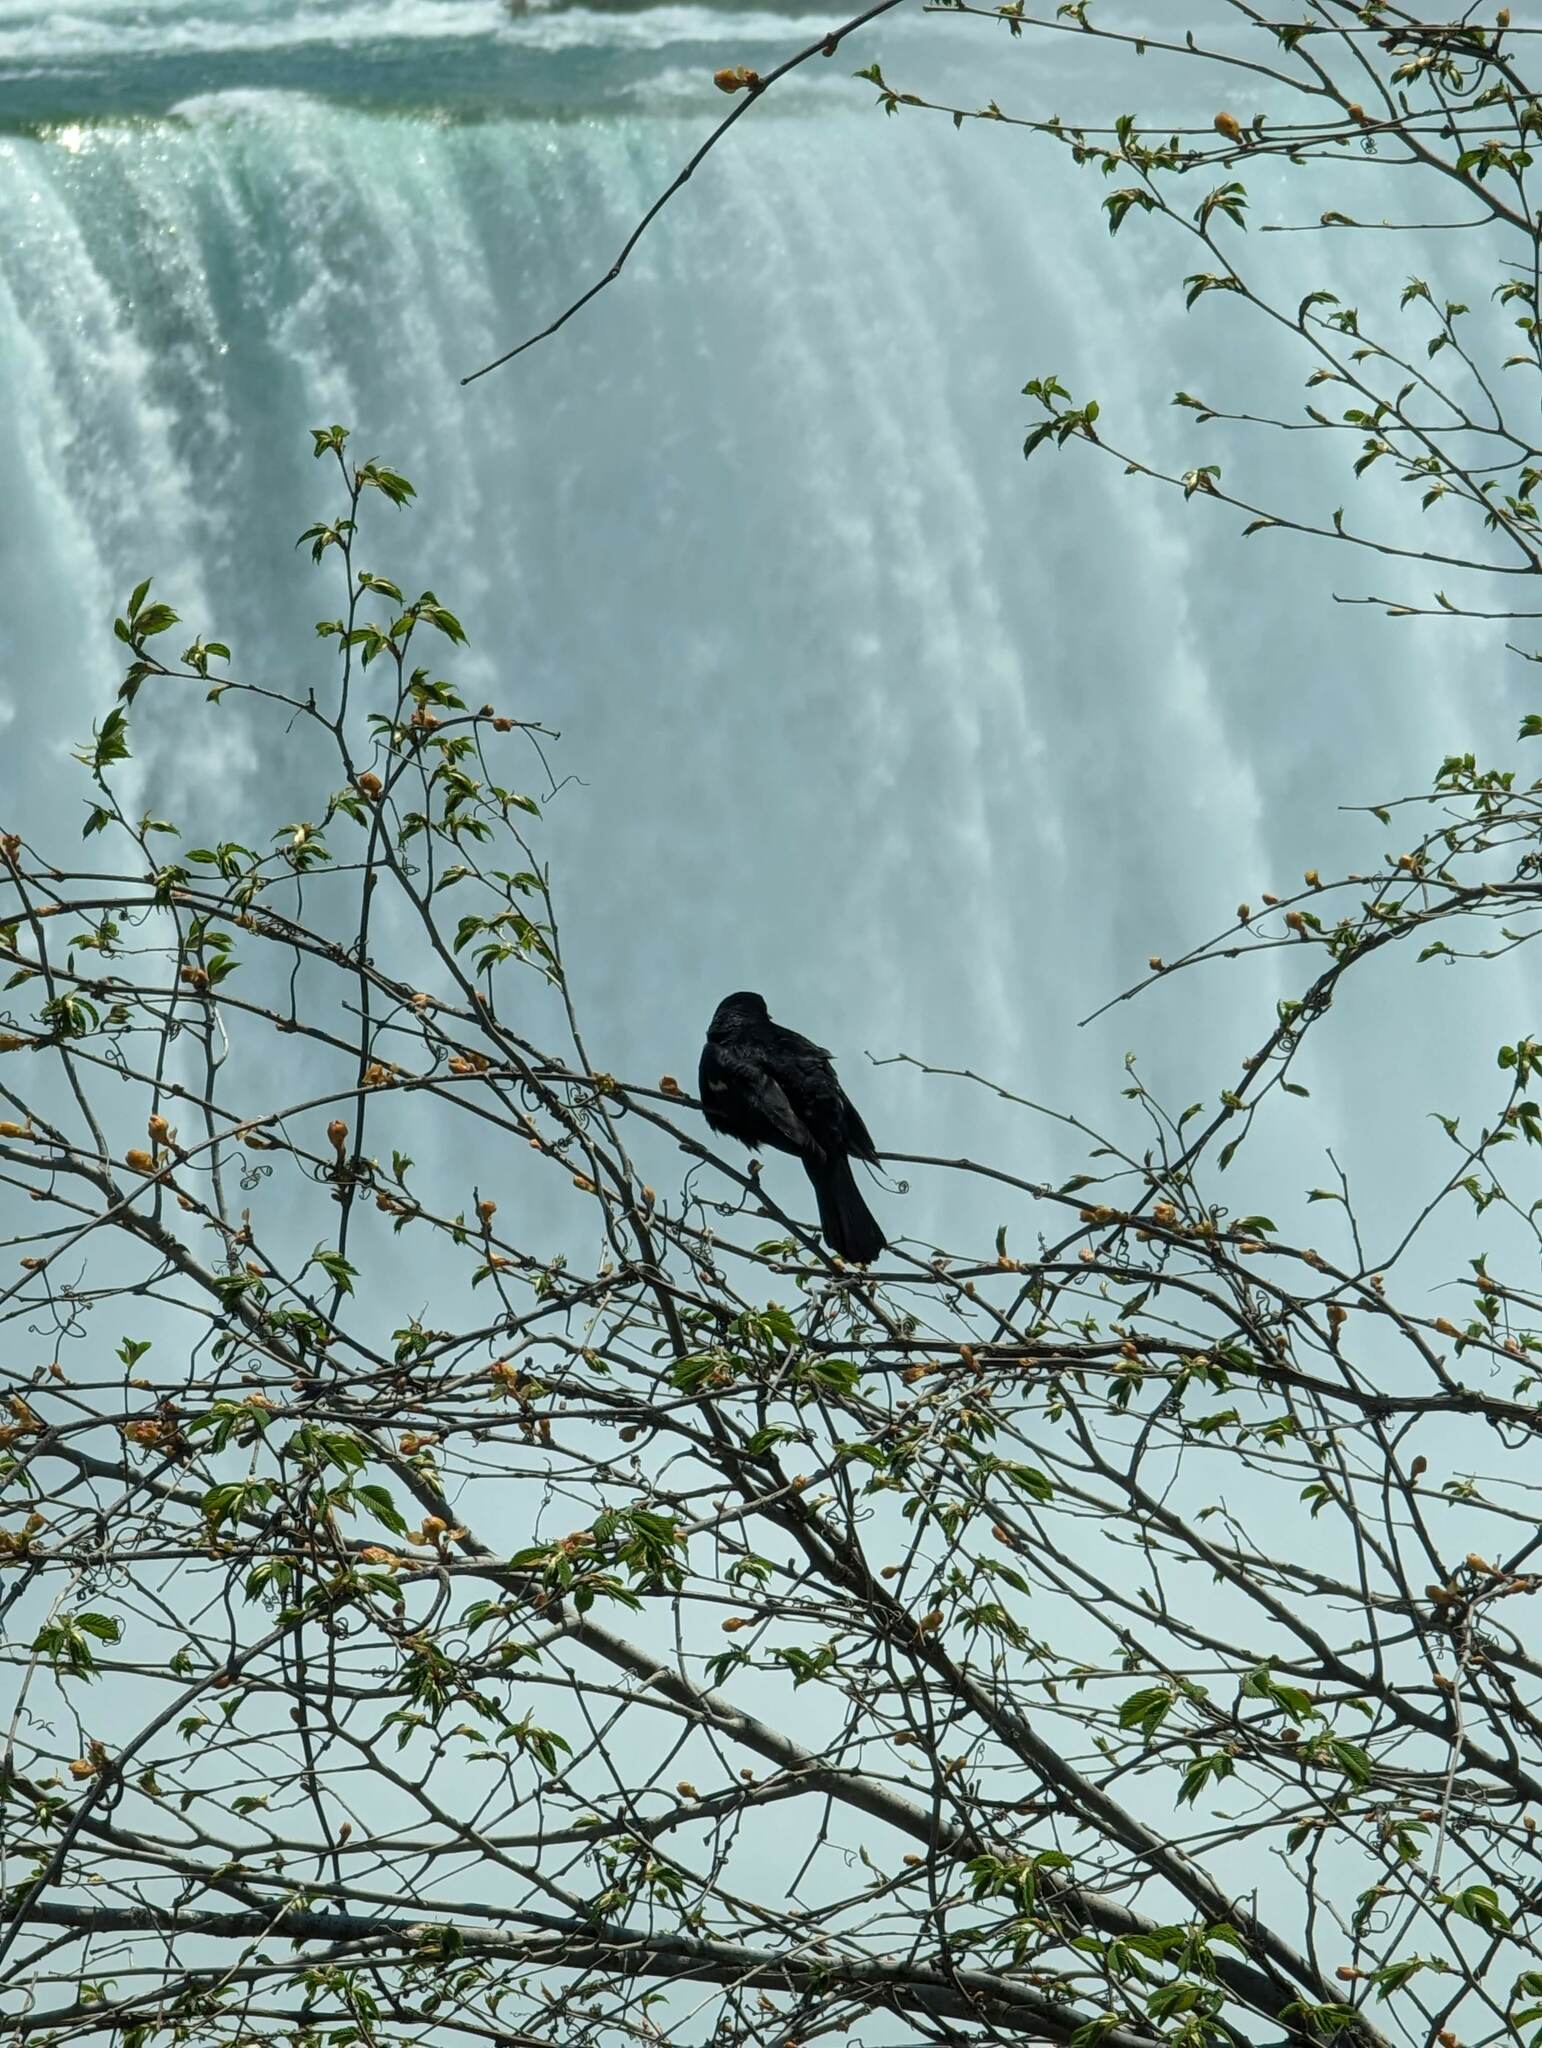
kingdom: Animalia
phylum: Chordata
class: Aves
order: Passeriformes
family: Icteridae
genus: Agelaius
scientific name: Agelaius phoeniceus
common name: Red-winged blackbird
